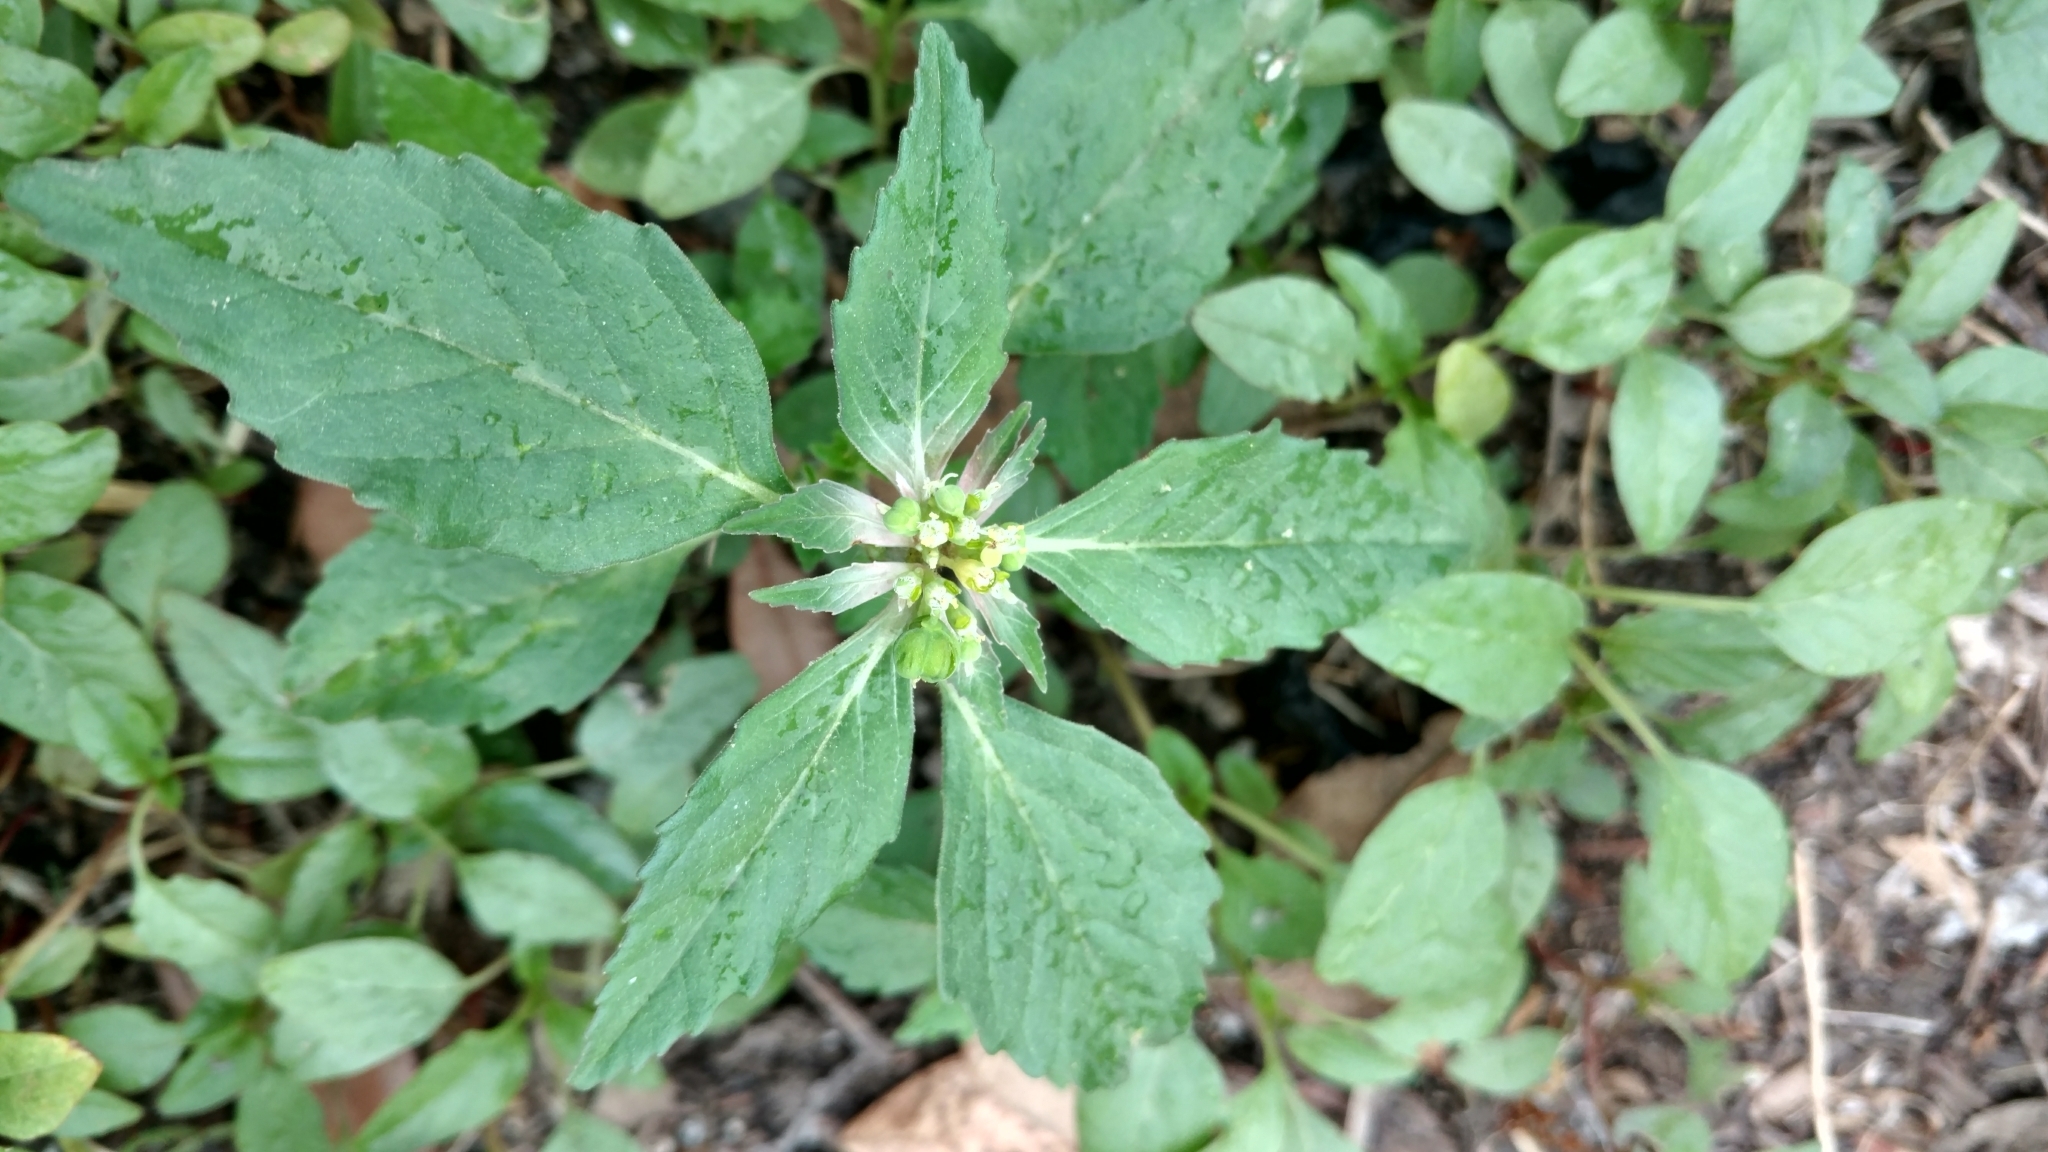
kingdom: Plantae
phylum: Tracheophyta
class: Magnoliopsida
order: Malpighiales
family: Euphorbiaceae
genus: Euphorbia
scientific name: Euphorbia dentata
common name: Dentate spurge
